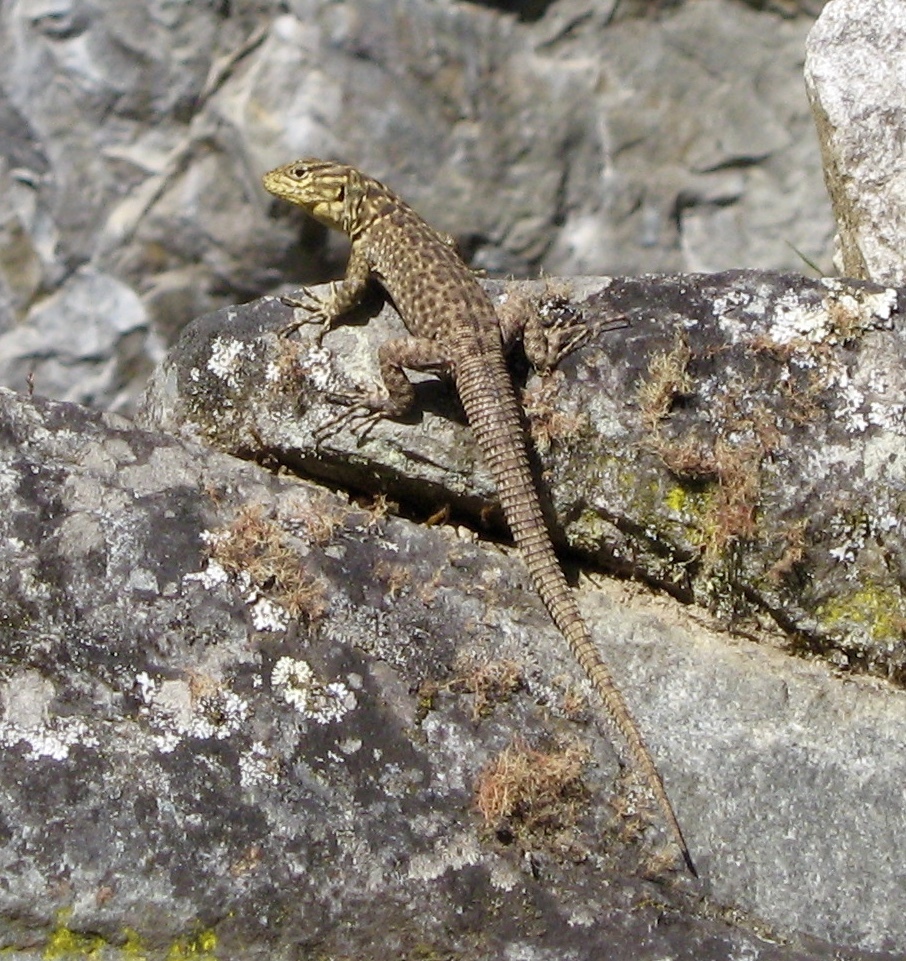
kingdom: Animalia
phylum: Chordata
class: Squamata
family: Tropiduridae
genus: Stenocercus
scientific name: Stenocercus crassicaudatus
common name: Spiny whorltail iguana
